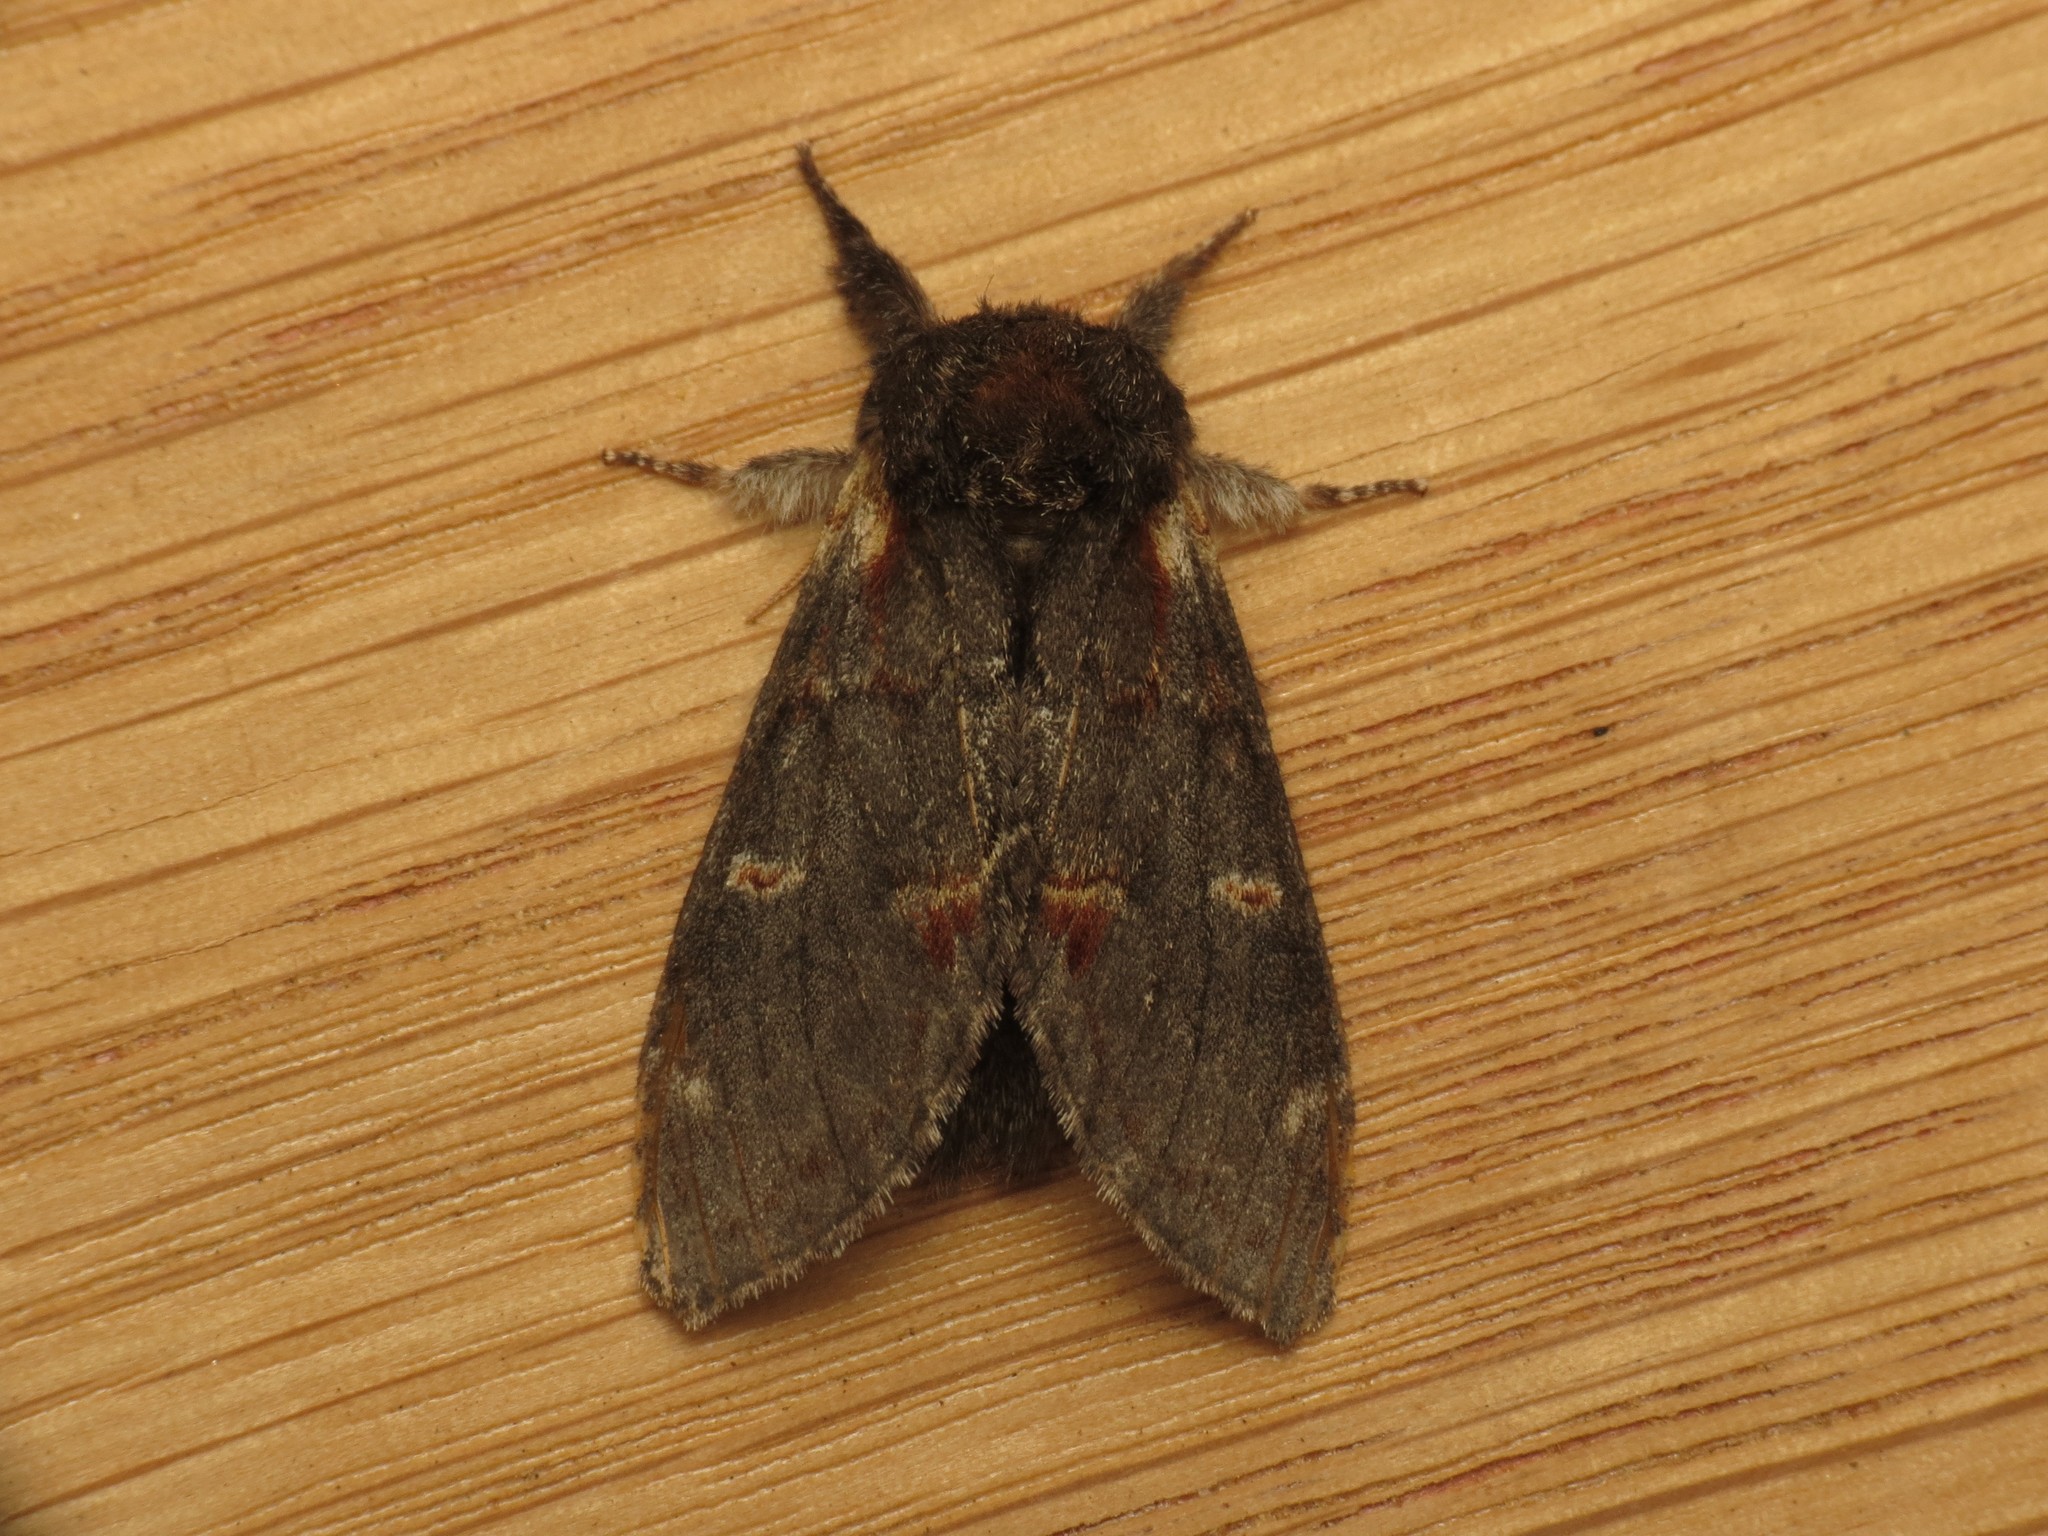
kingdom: Animalia
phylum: Arthropoda
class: Insecta
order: Lepidoptera
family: Notodontidae
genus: Notodonta
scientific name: Notodonta dromedarius
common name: Iron prominent
